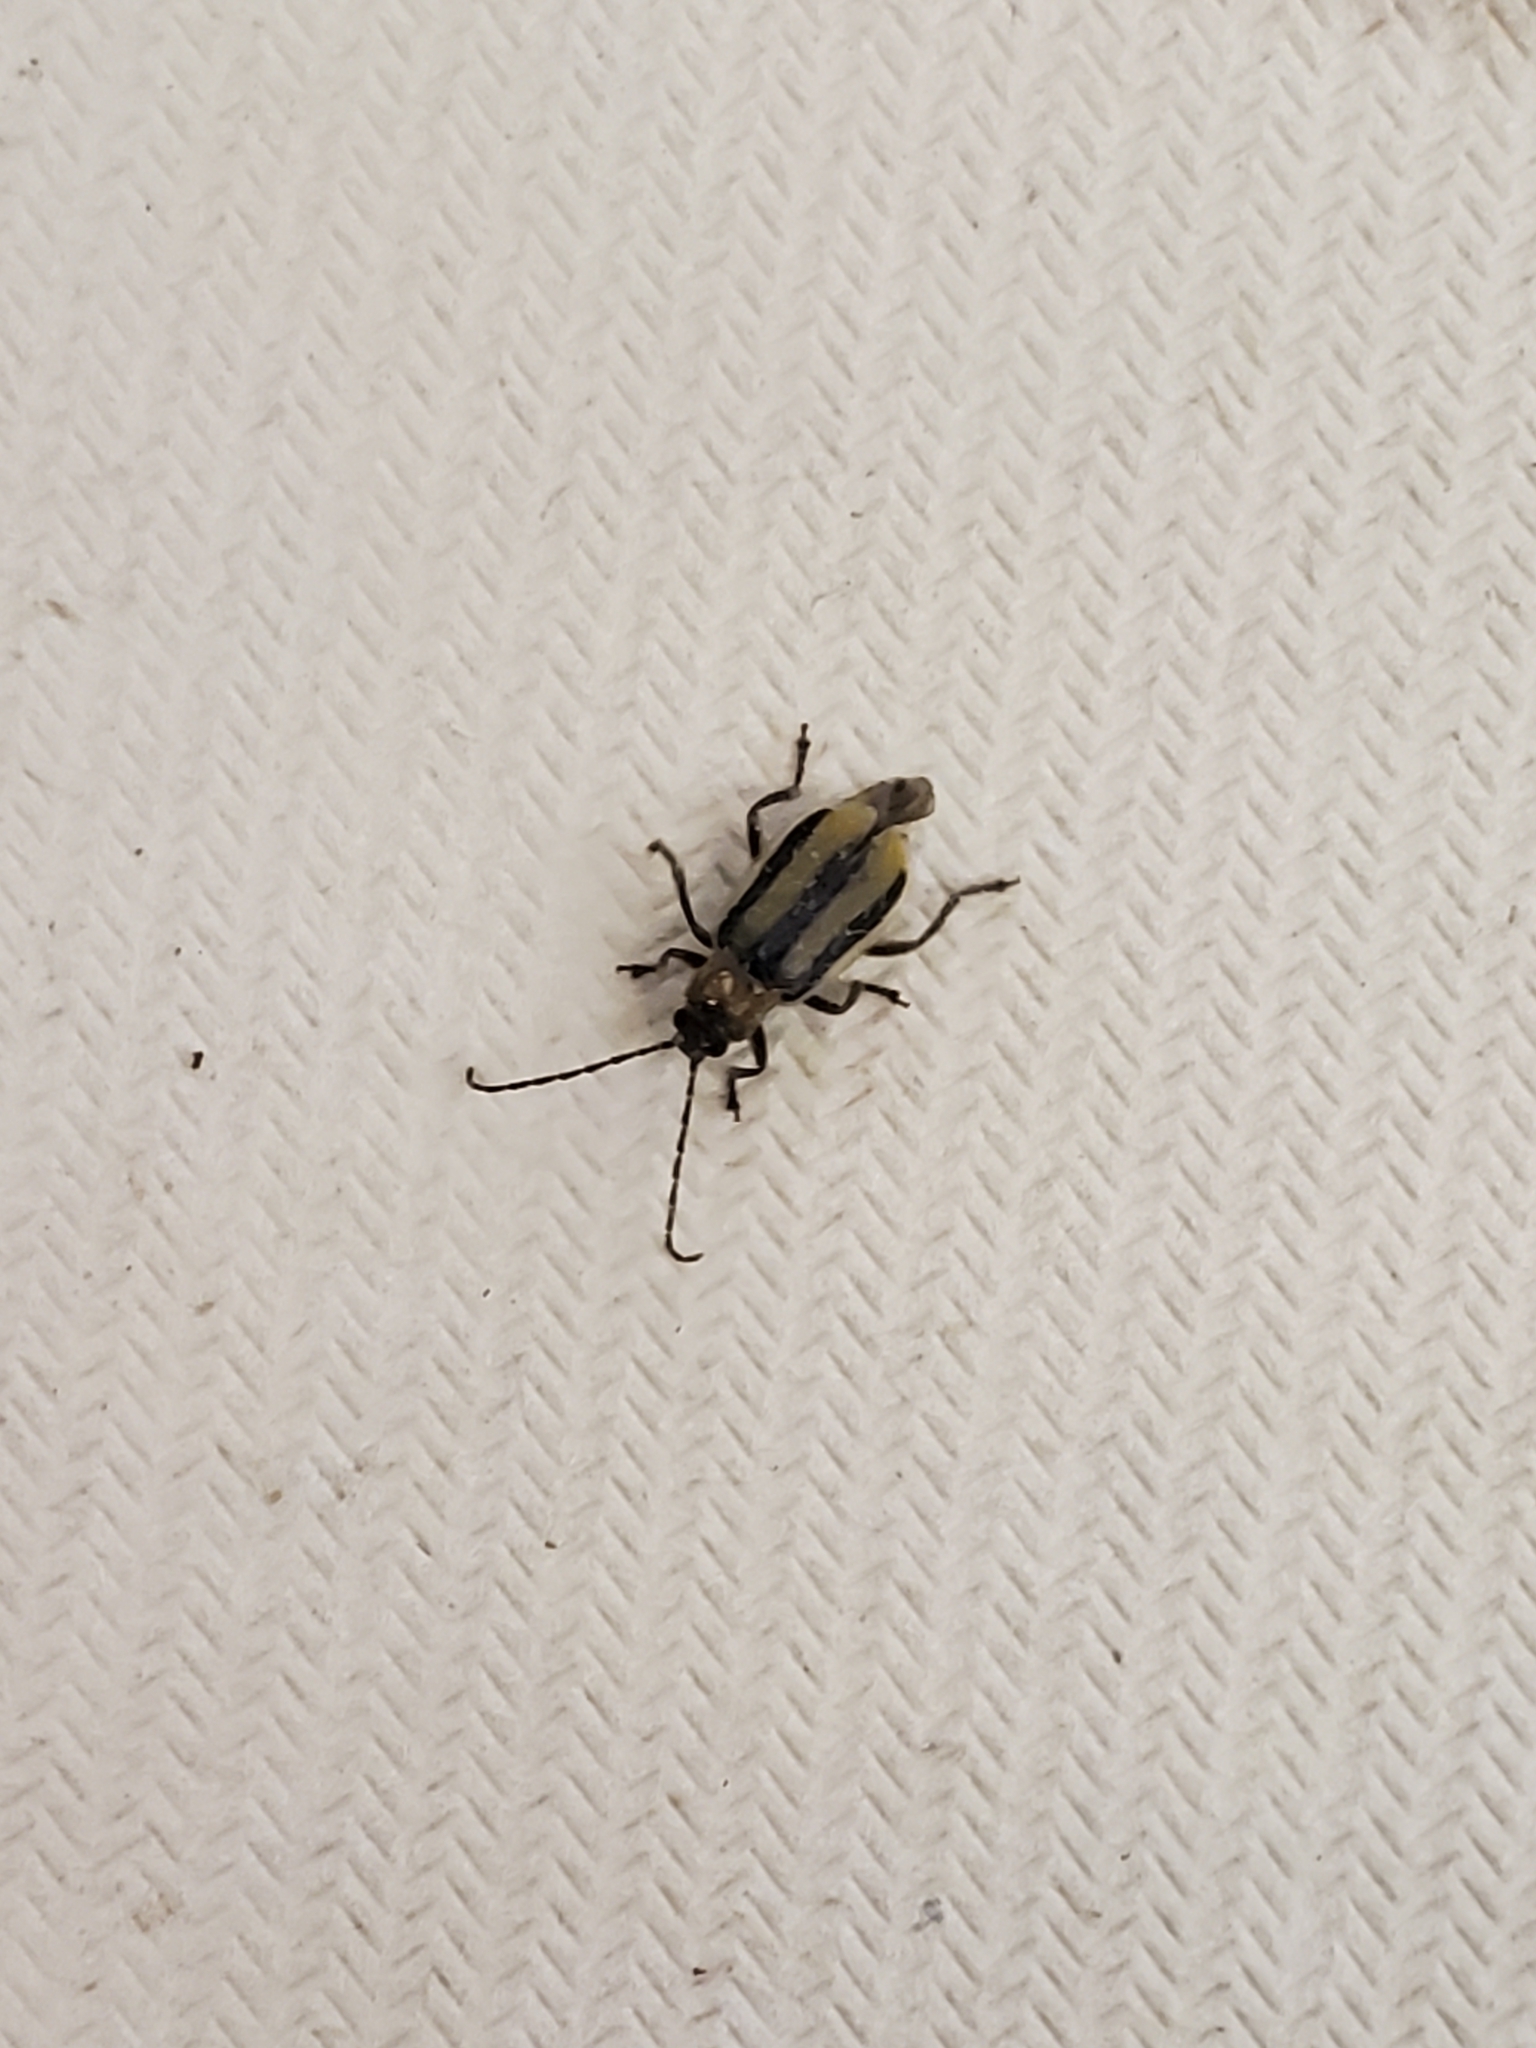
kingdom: Animalia
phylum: Arthropoda
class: Insecta
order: Coleoptera
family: Chrysomelidae
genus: Diabrotica
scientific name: Diabrotica virgifera
